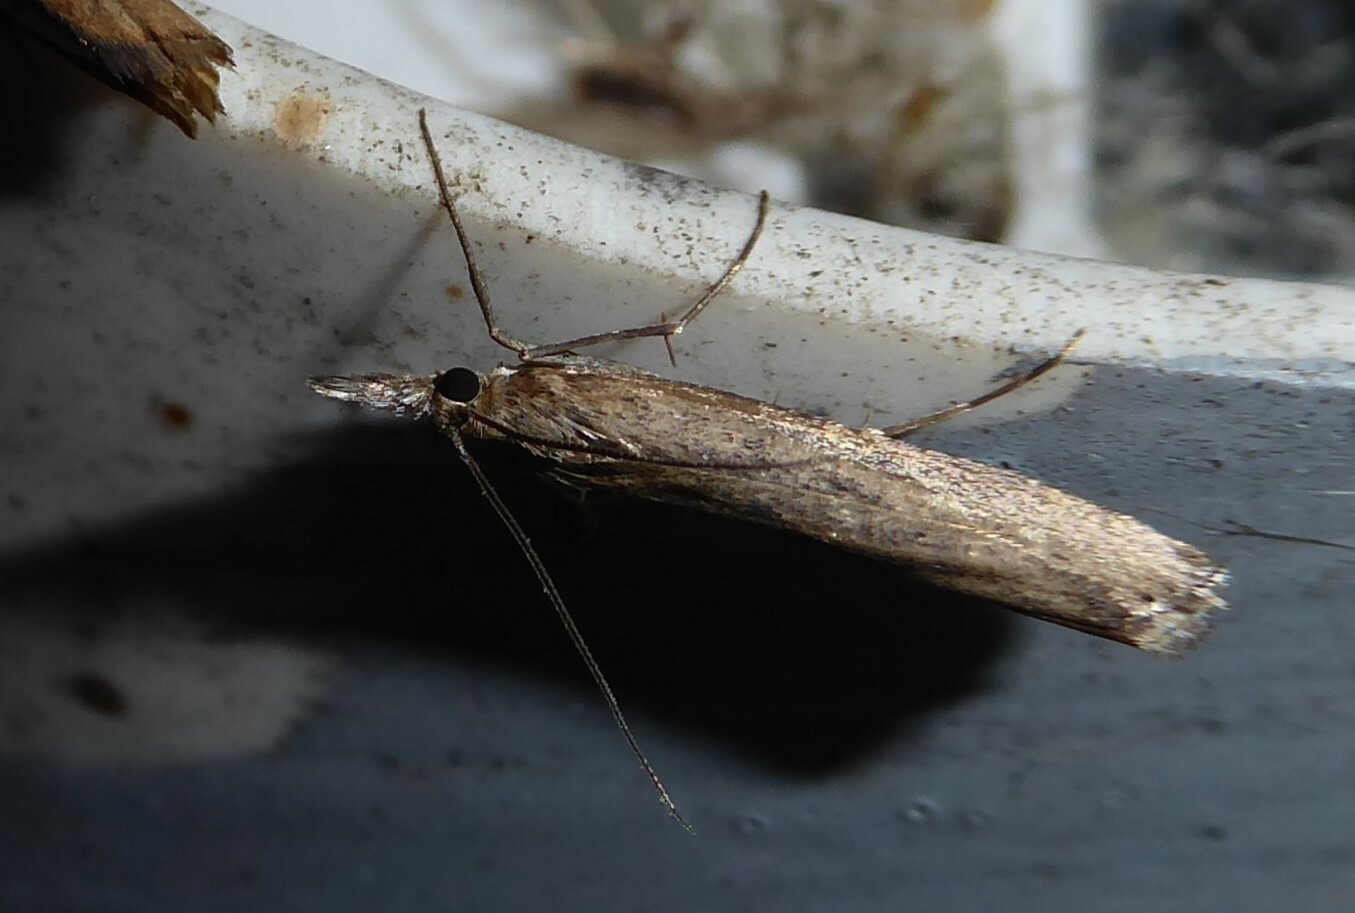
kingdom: Animalia
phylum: Arthropoda
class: Insecta
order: Lepidoptera
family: Crambidae
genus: Orocrambus
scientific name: Orocrambus cyclopicus
